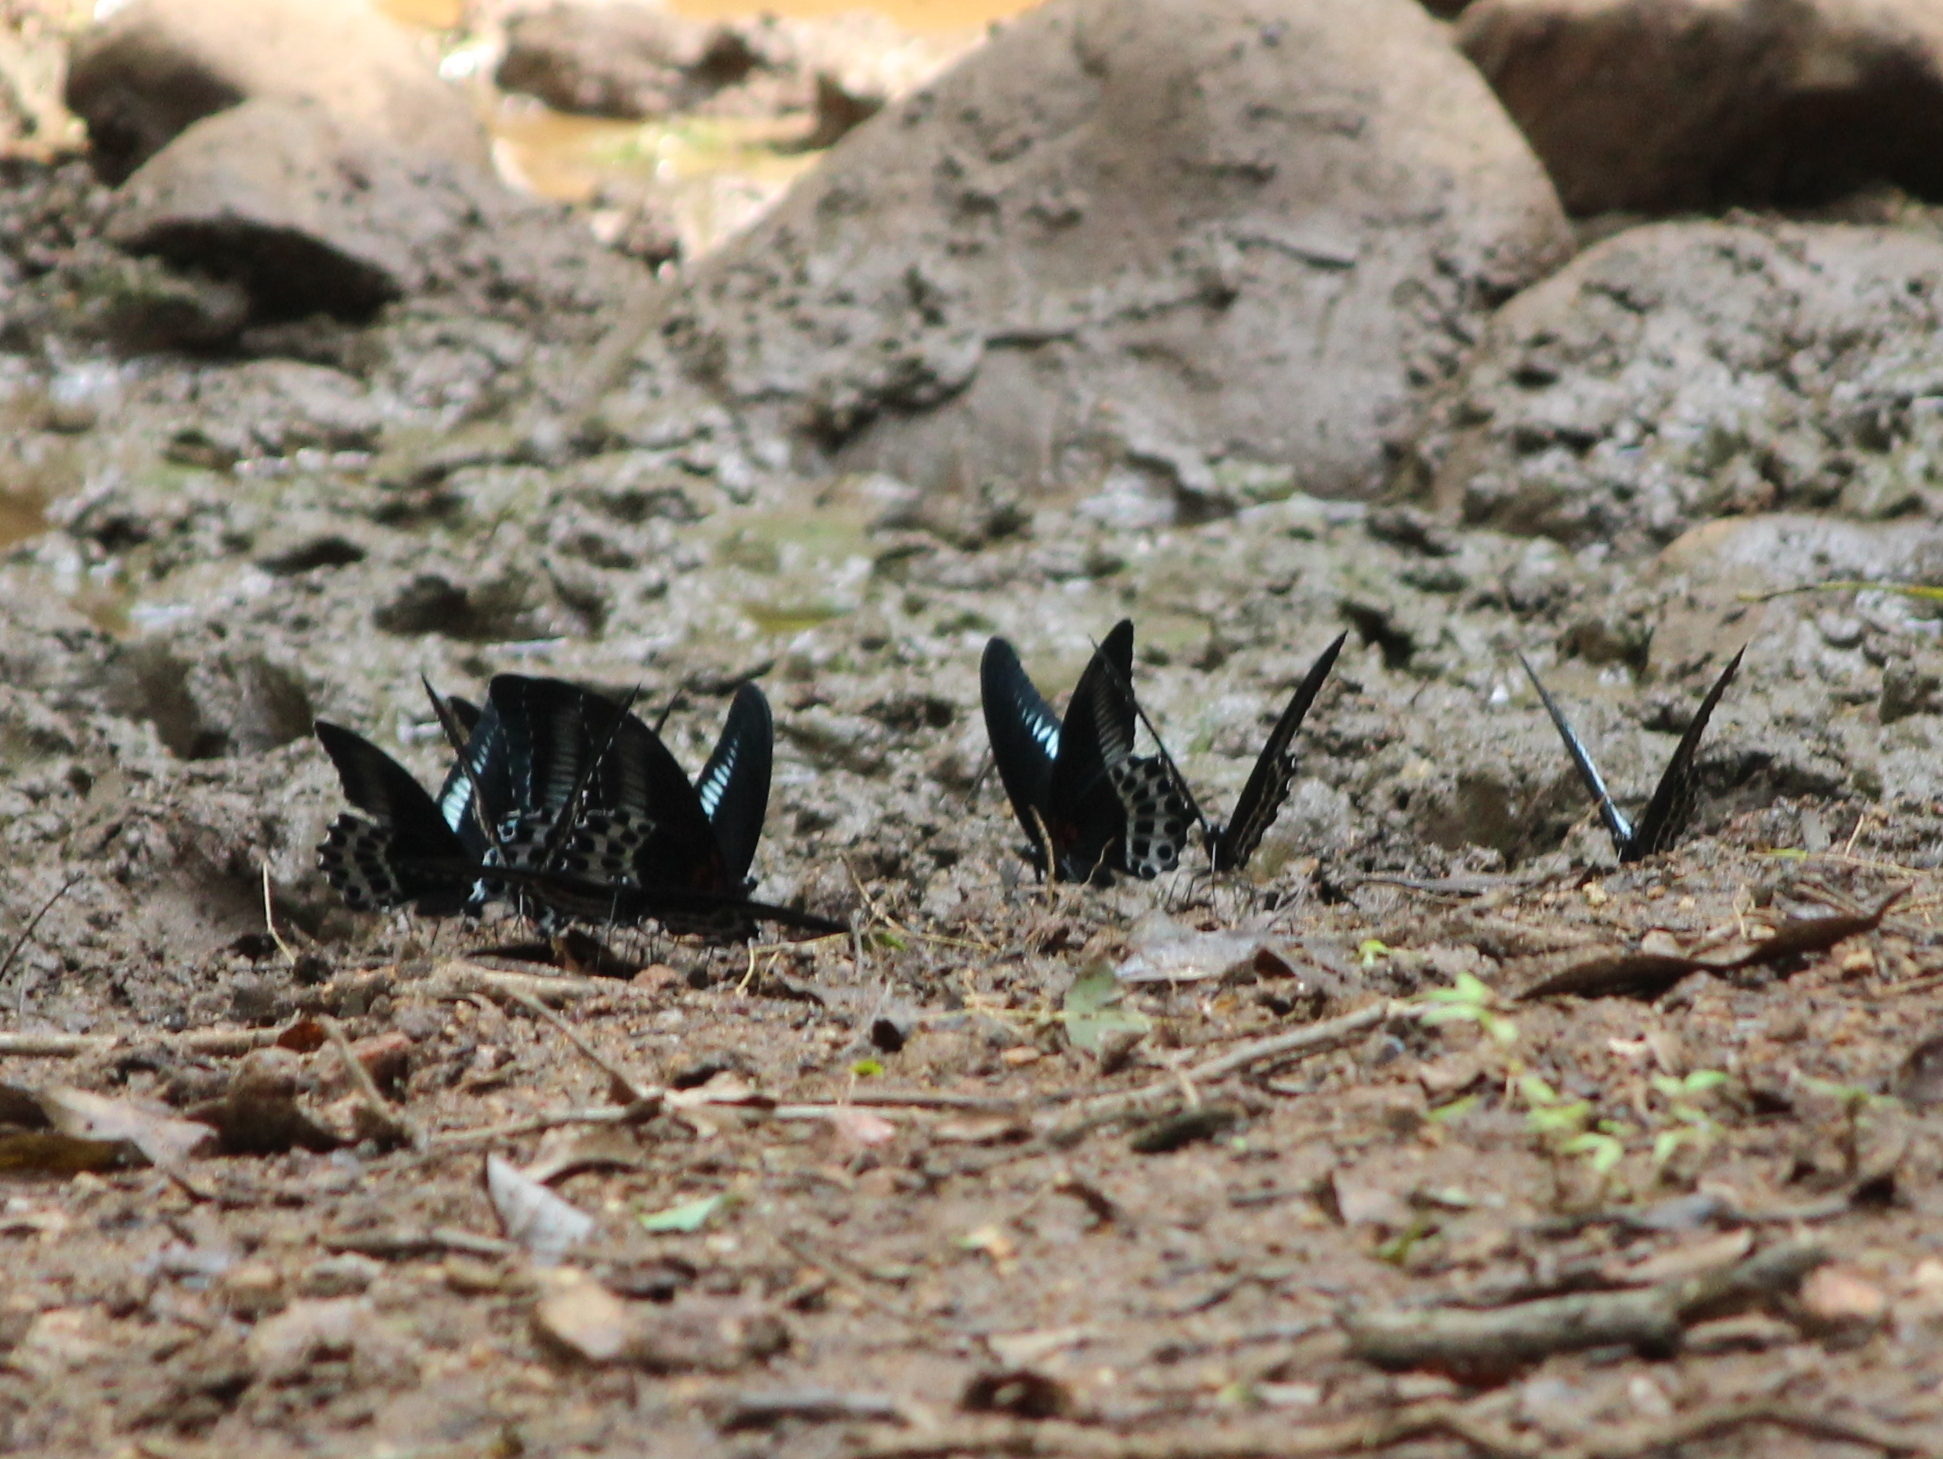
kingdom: Animalia
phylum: Arthropoda
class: Insecta
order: Lepidoptera
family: Papilionidae
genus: Papilio
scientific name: Papilio memnon
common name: Great mormon
